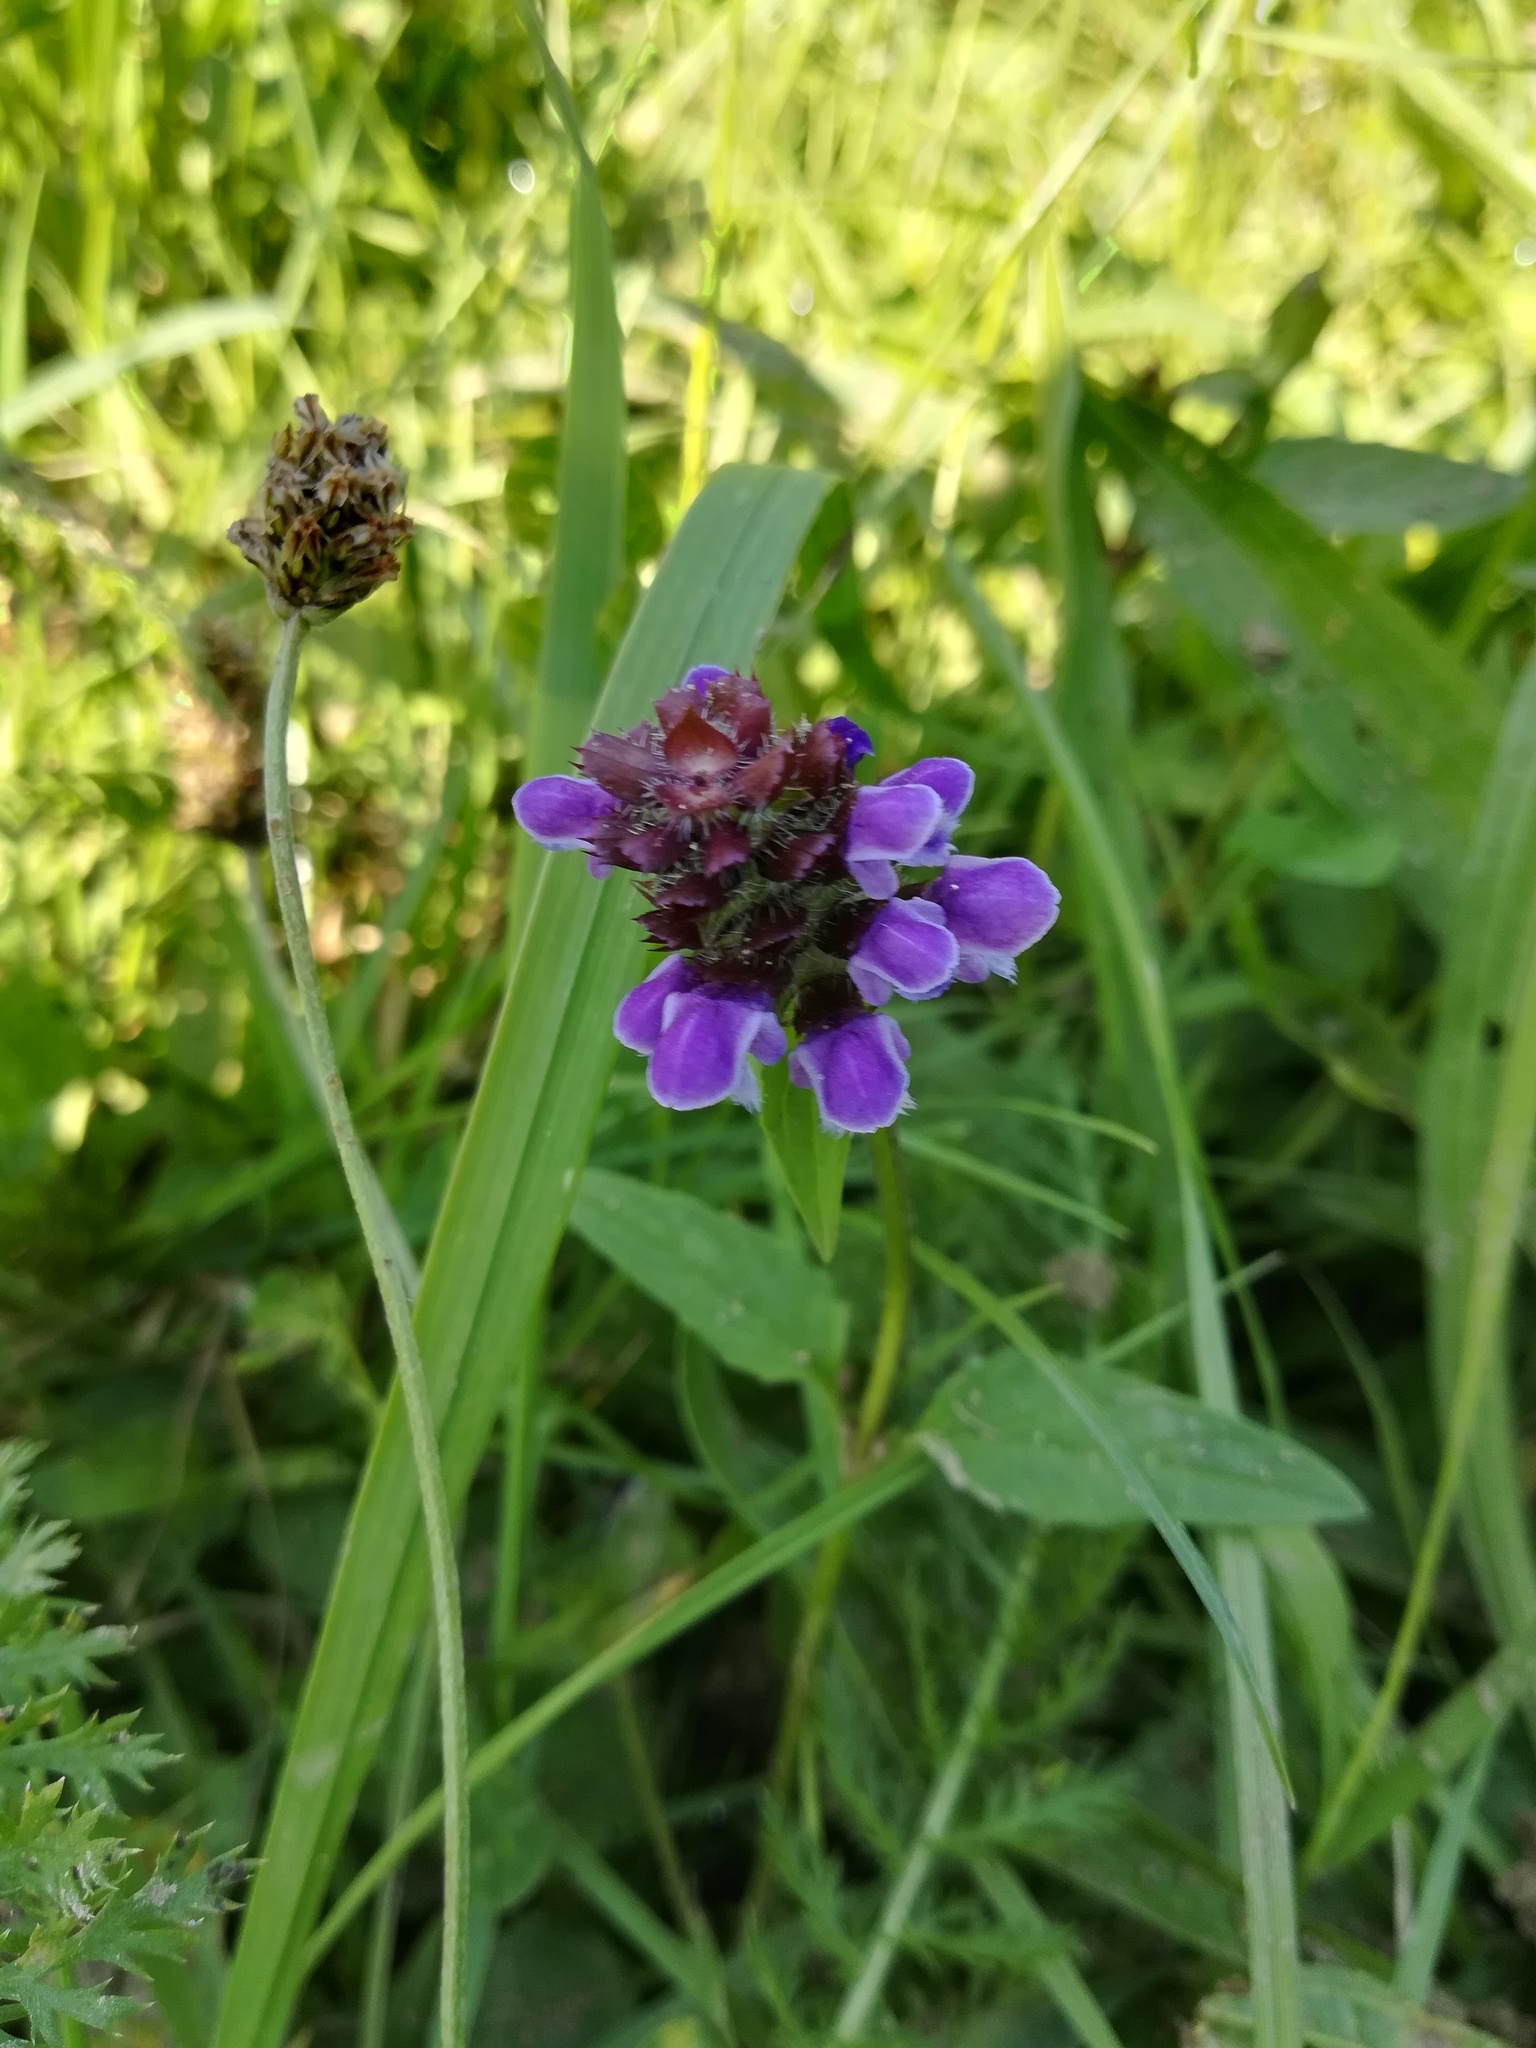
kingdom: Plantae
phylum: Tracheophyta
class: Magnoliopsida
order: Lamiales
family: Lamiaceae
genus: Prunella
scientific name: Prunella vulgaris
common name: Heal-all
